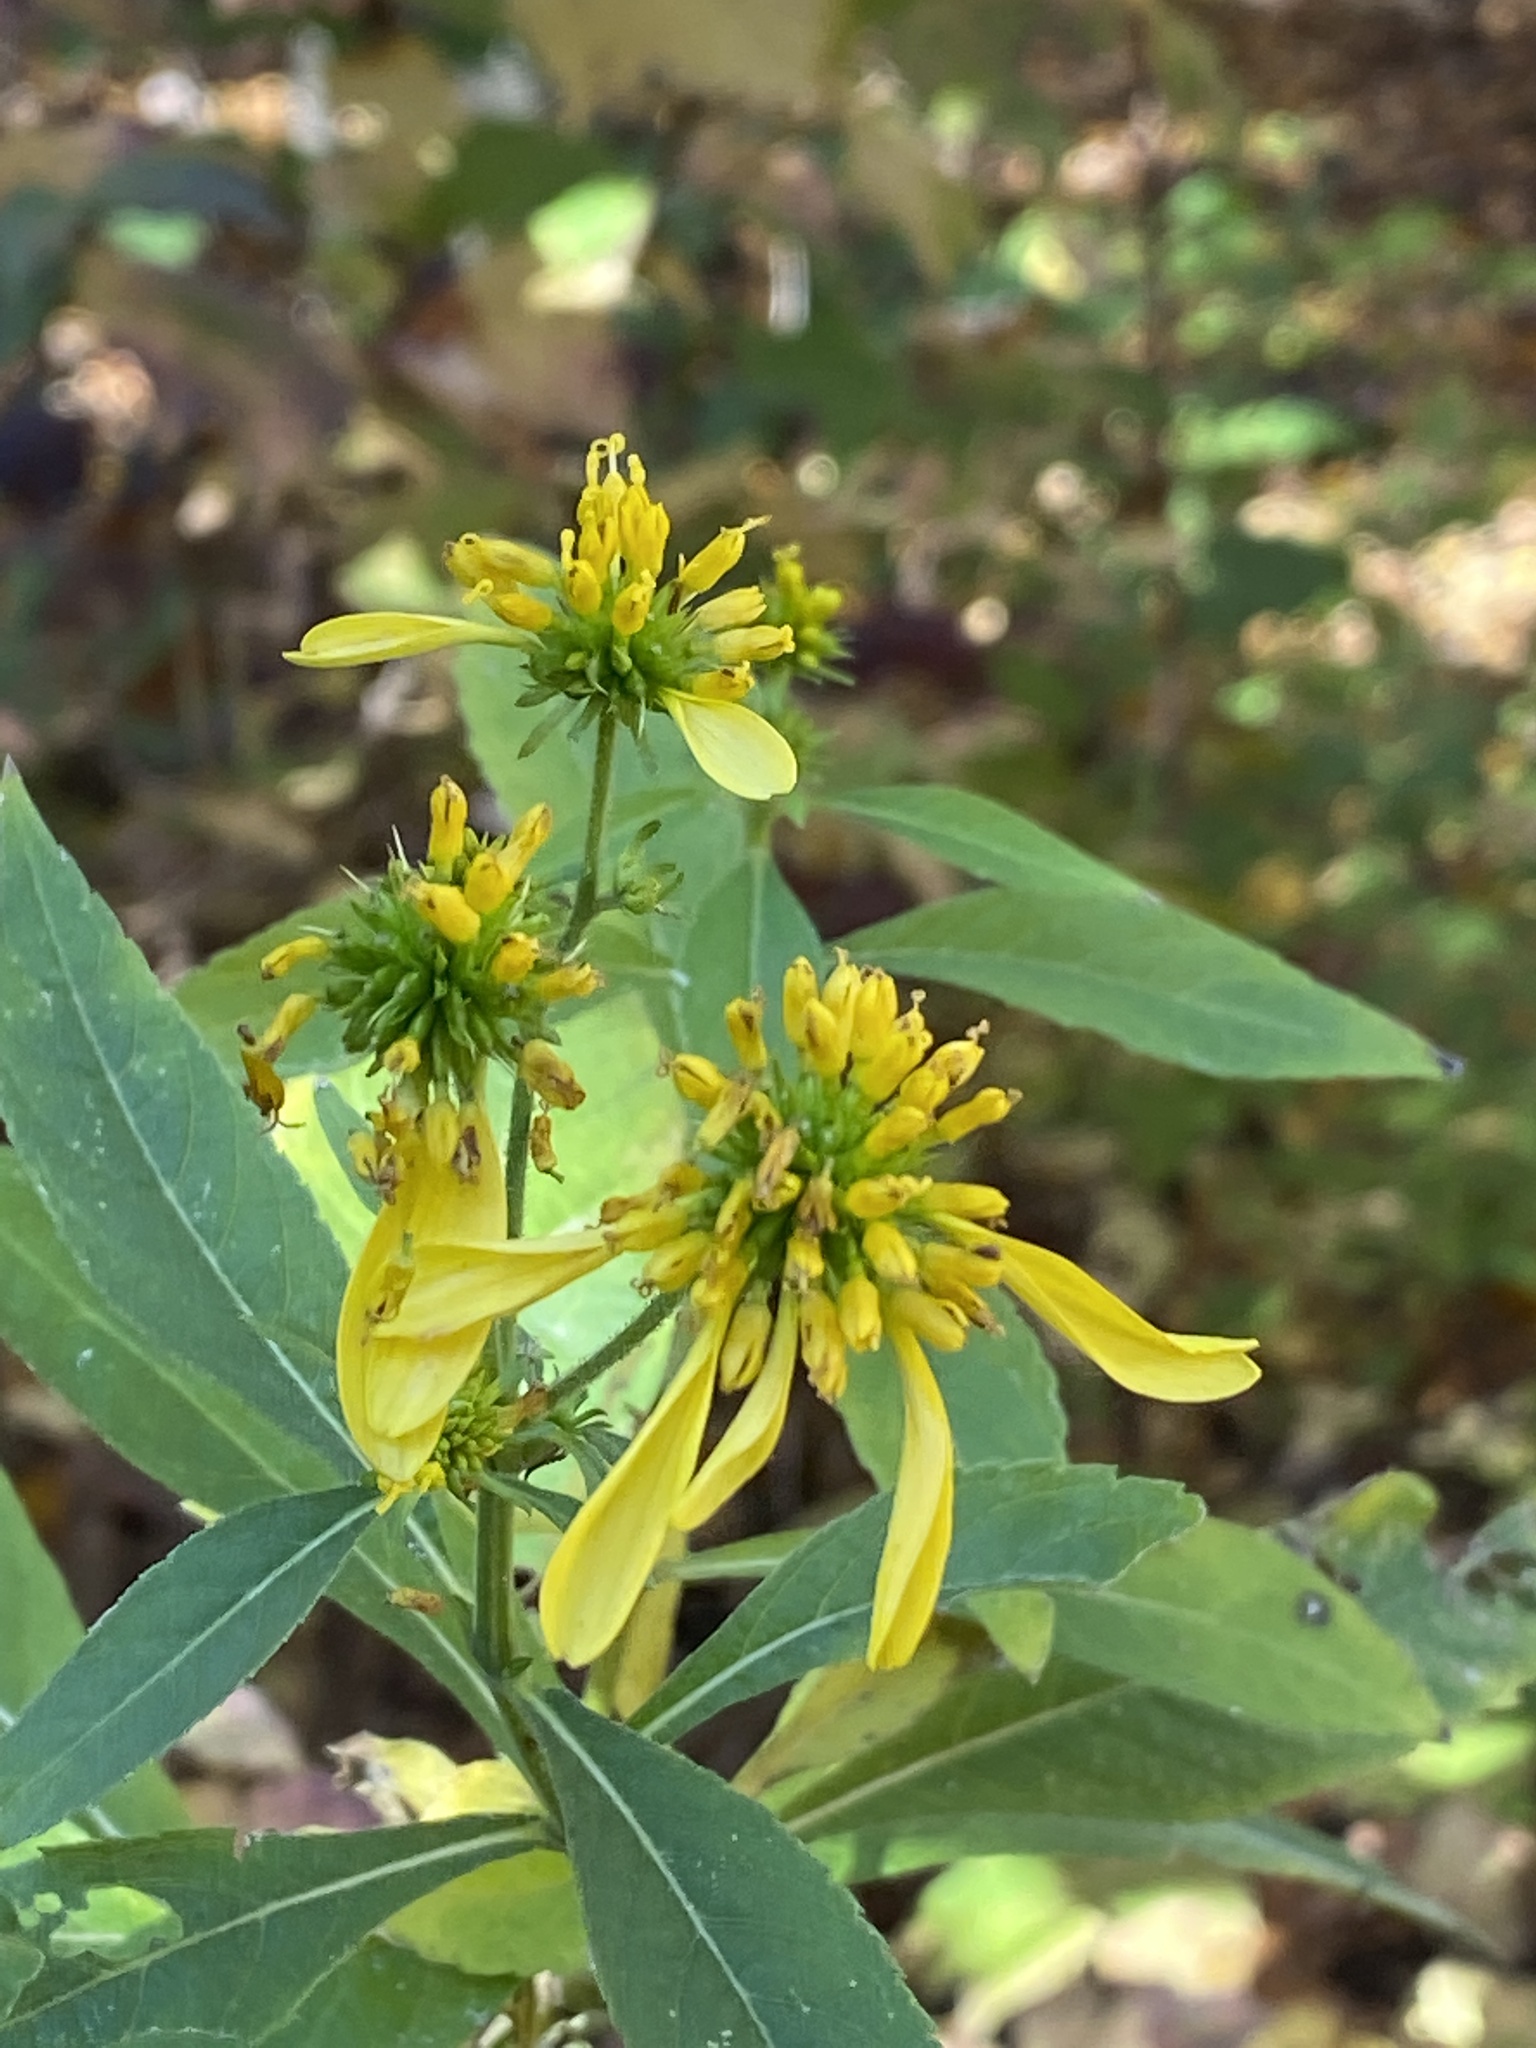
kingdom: Plantae
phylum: Tracheophyta
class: Magnoliopsida
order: Asterales
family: Asteraceae
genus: Verbesina
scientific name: Verbesina alternifolia
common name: Wingstem
